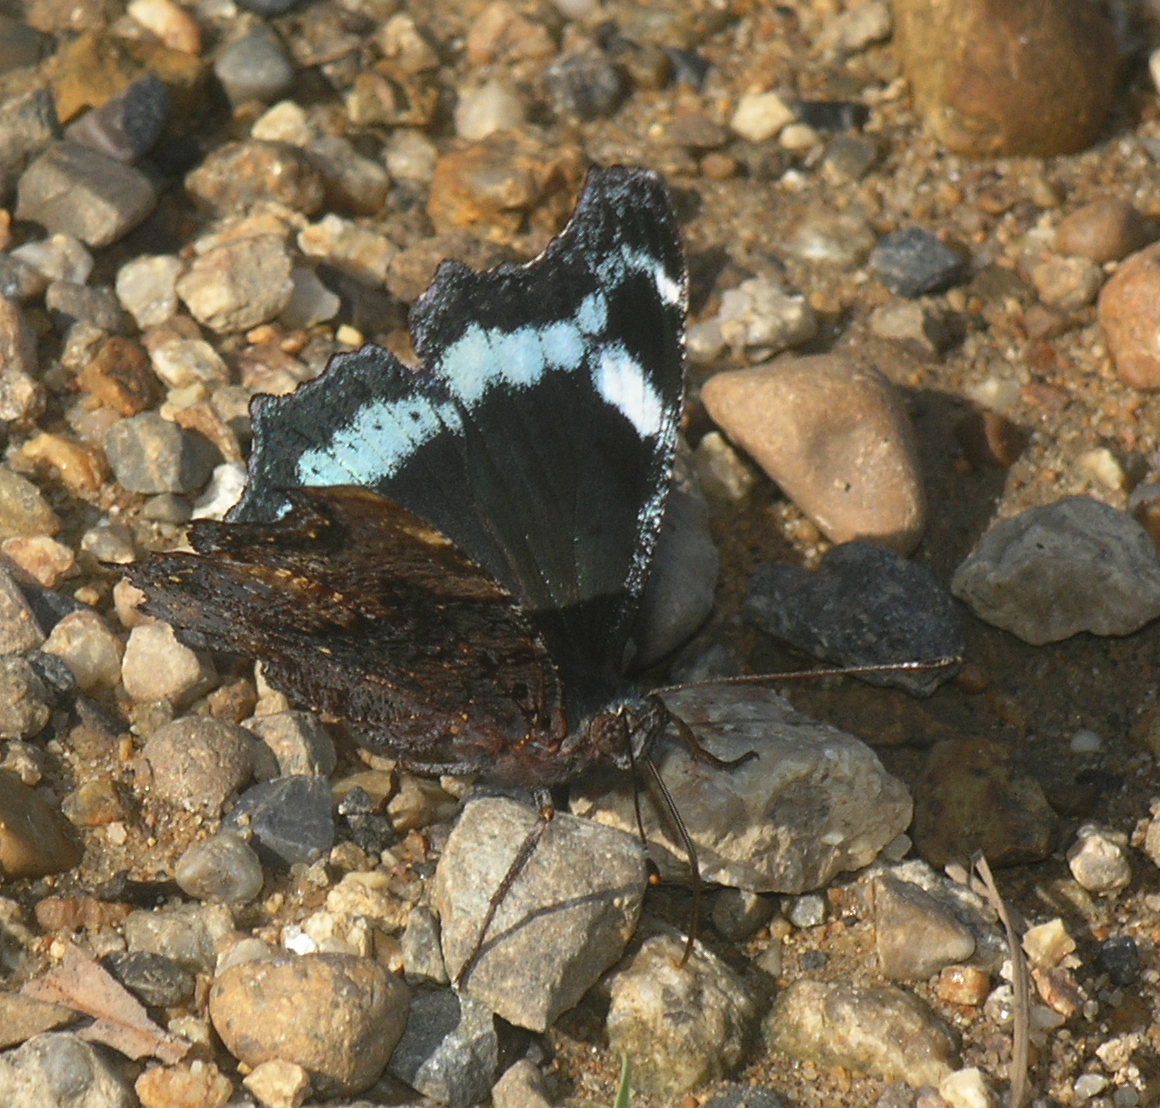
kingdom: Animalia
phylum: Arthropoda
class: Insecta
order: Lepidoptera
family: Nymphalidae
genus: Vanessa
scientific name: Vanessa Kaniska canace
